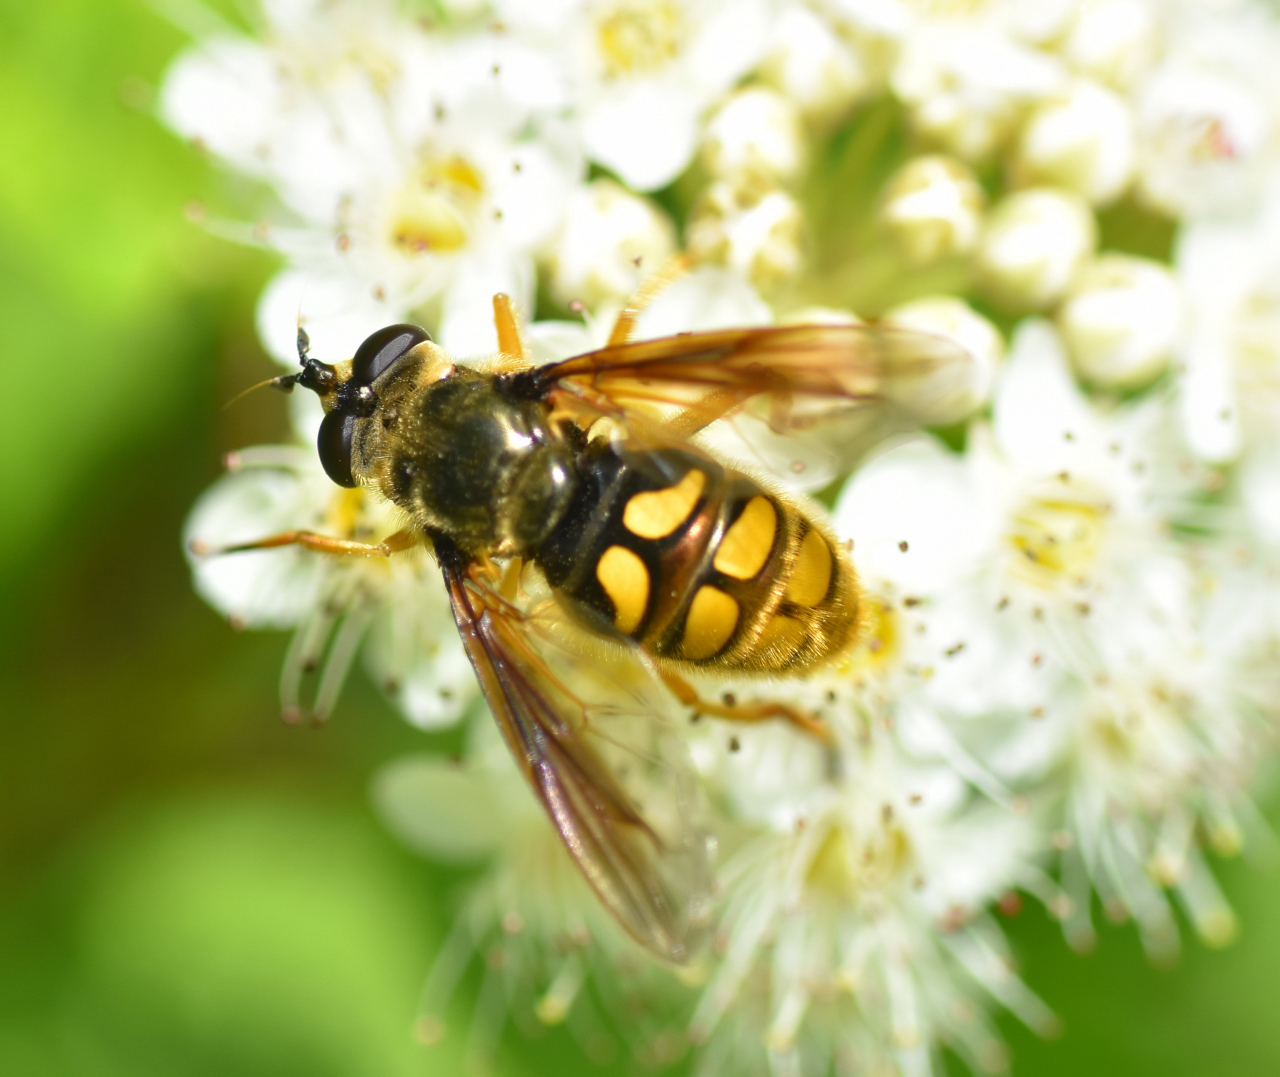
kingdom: Animalia
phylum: Arthropoda
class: Insecta
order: Diptera
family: Syrphidae
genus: Somula
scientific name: Somula decora
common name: Spotted wood fly
